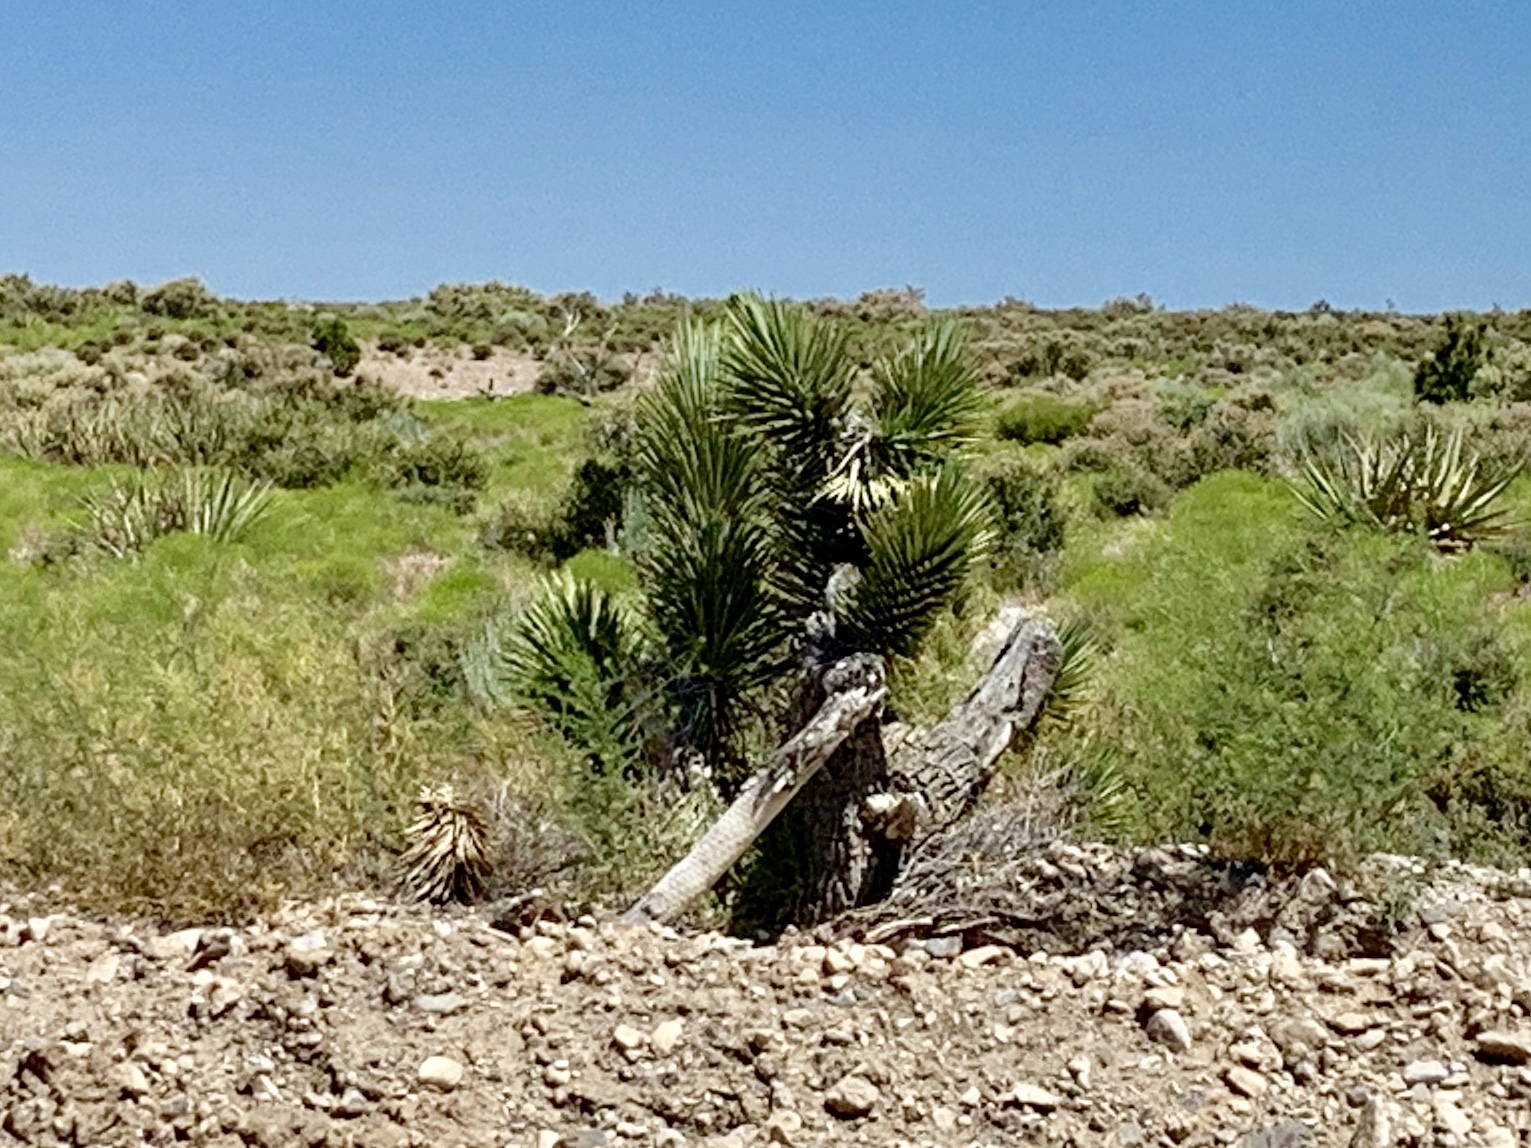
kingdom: Plantae
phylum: Tracheophyta
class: Liliopsida
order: Asparagales
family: Asparagaceae
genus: Yucca
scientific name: Yucca brevifolia
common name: Joshua tree
